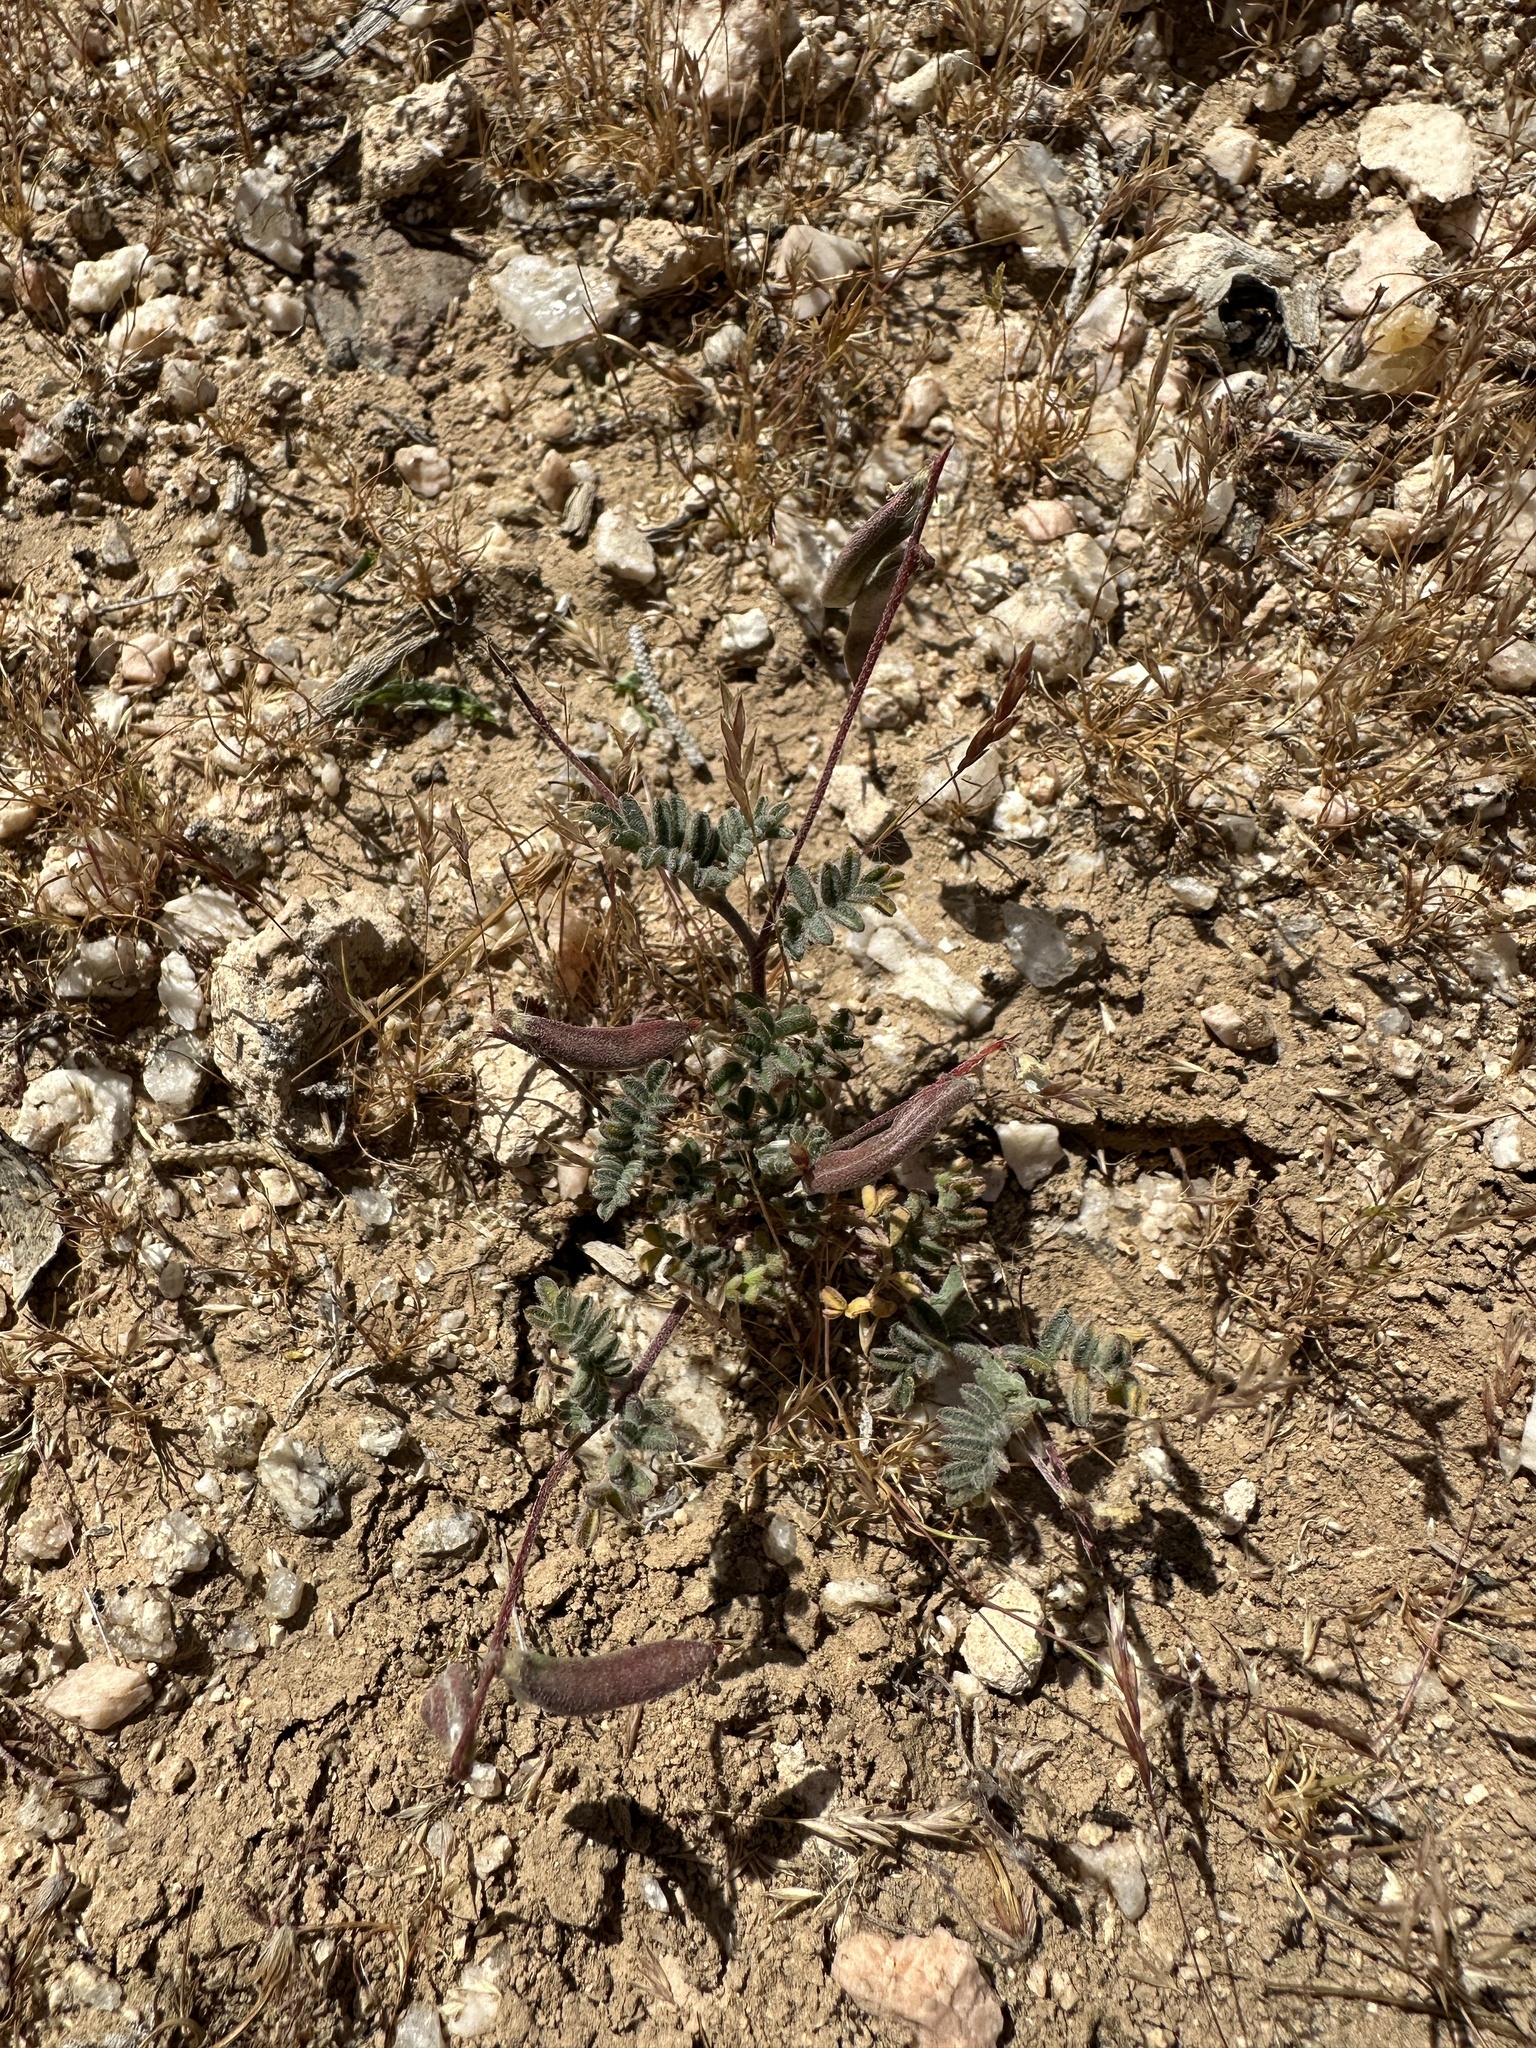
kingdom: Plantae
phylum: Tracheophyta
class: Magnoliopsida
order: Fabales
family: Fabaceae
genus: Astragalus
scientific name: Astragalus acutirostris
